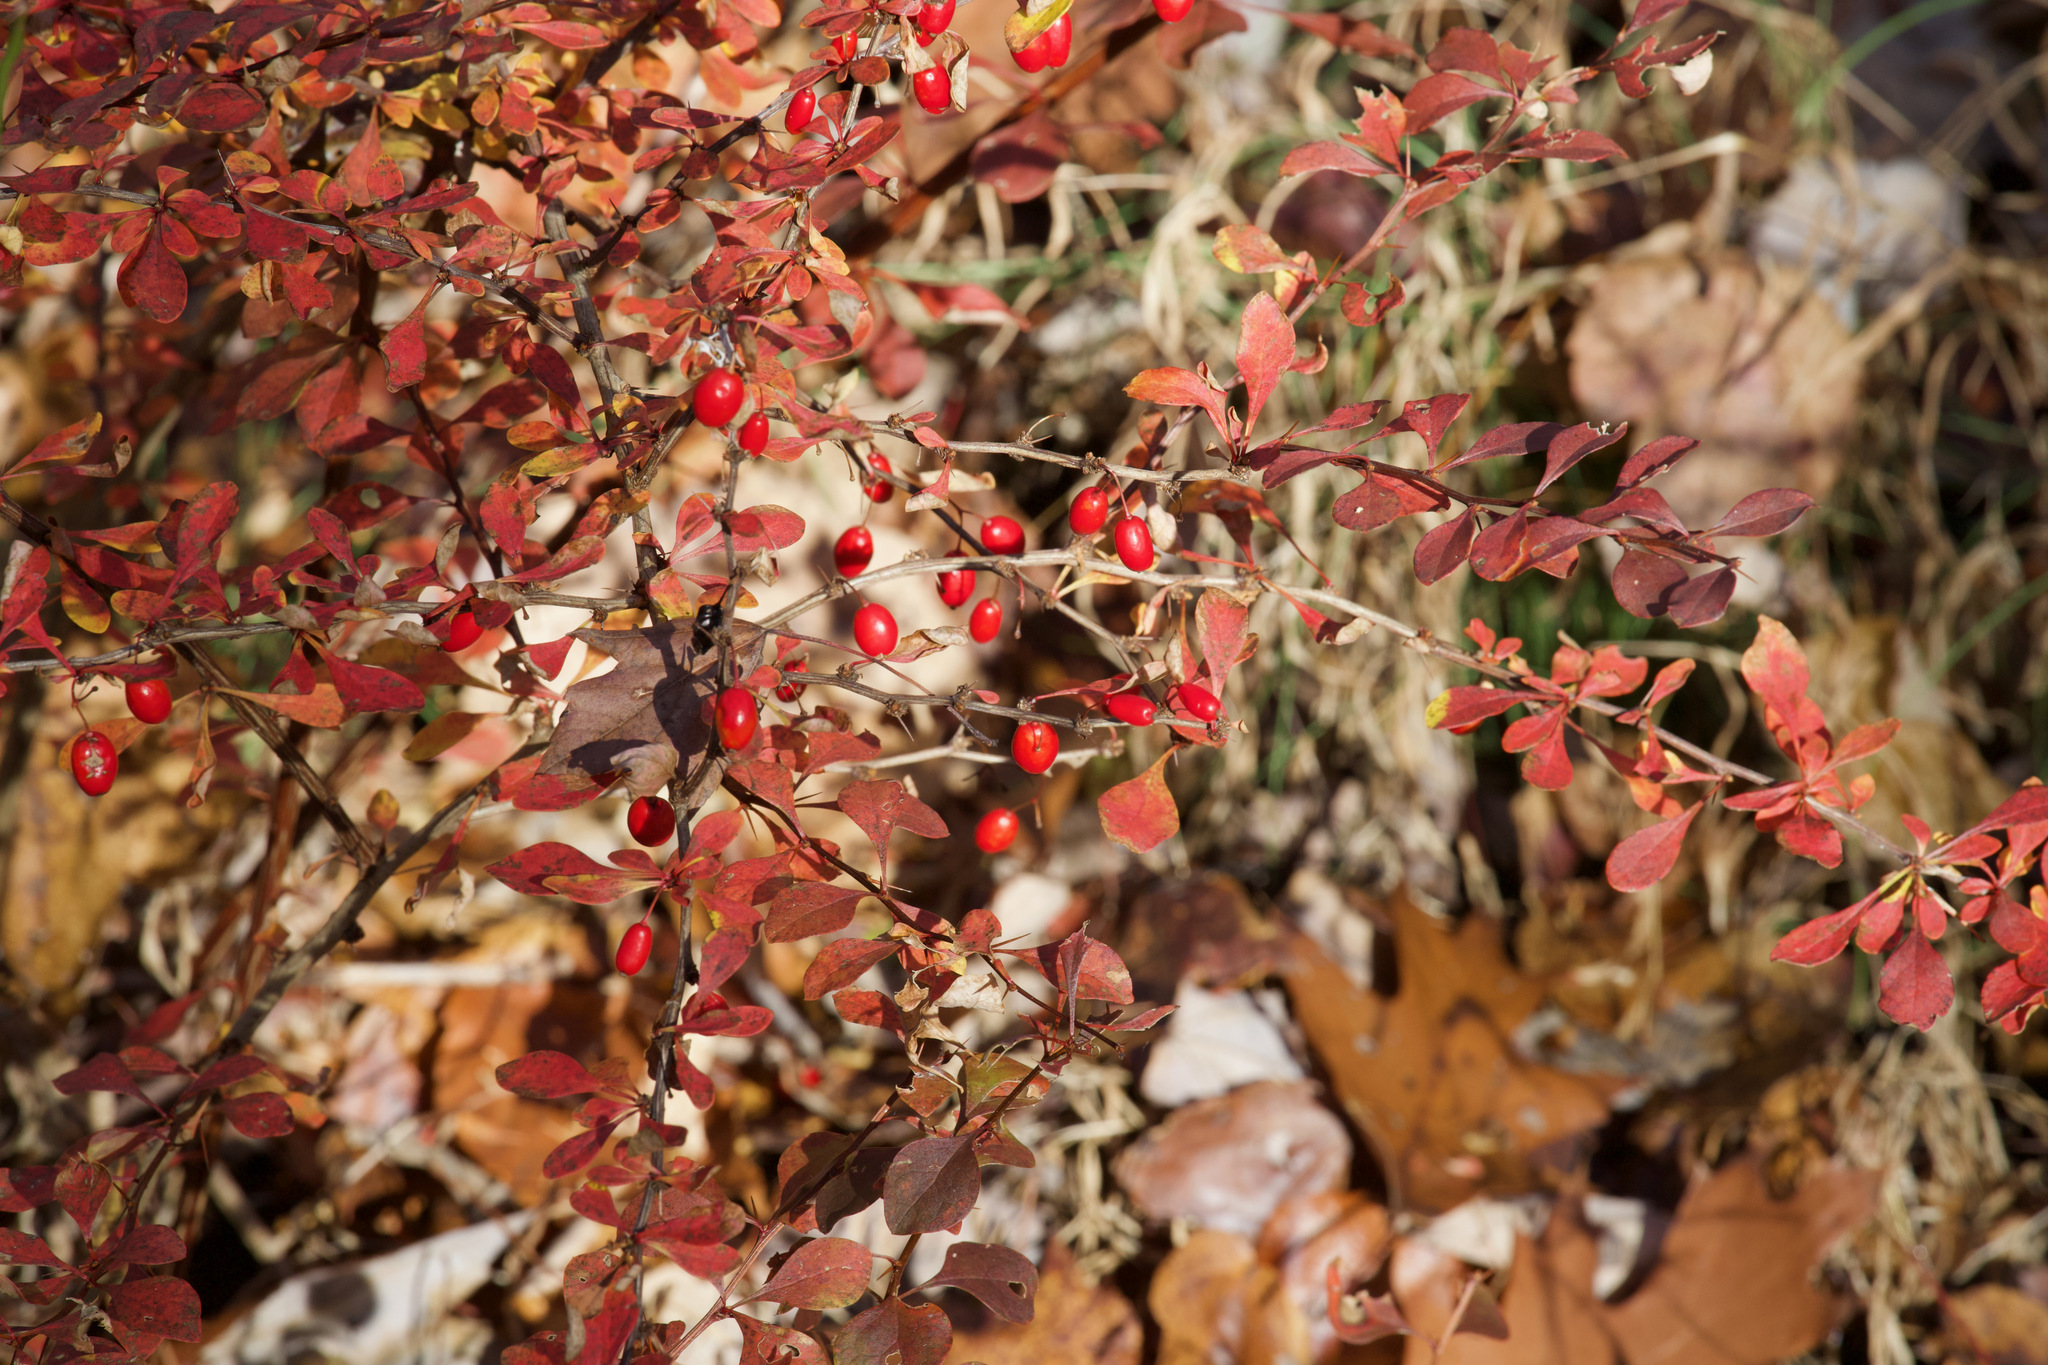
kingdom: Plantae
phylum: Tracheophyta
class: Magnoliopsida
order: Ranunculales
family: Berberidaceae
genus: Berberis
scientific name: Berberis thunbergii
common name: Japanese barberry
